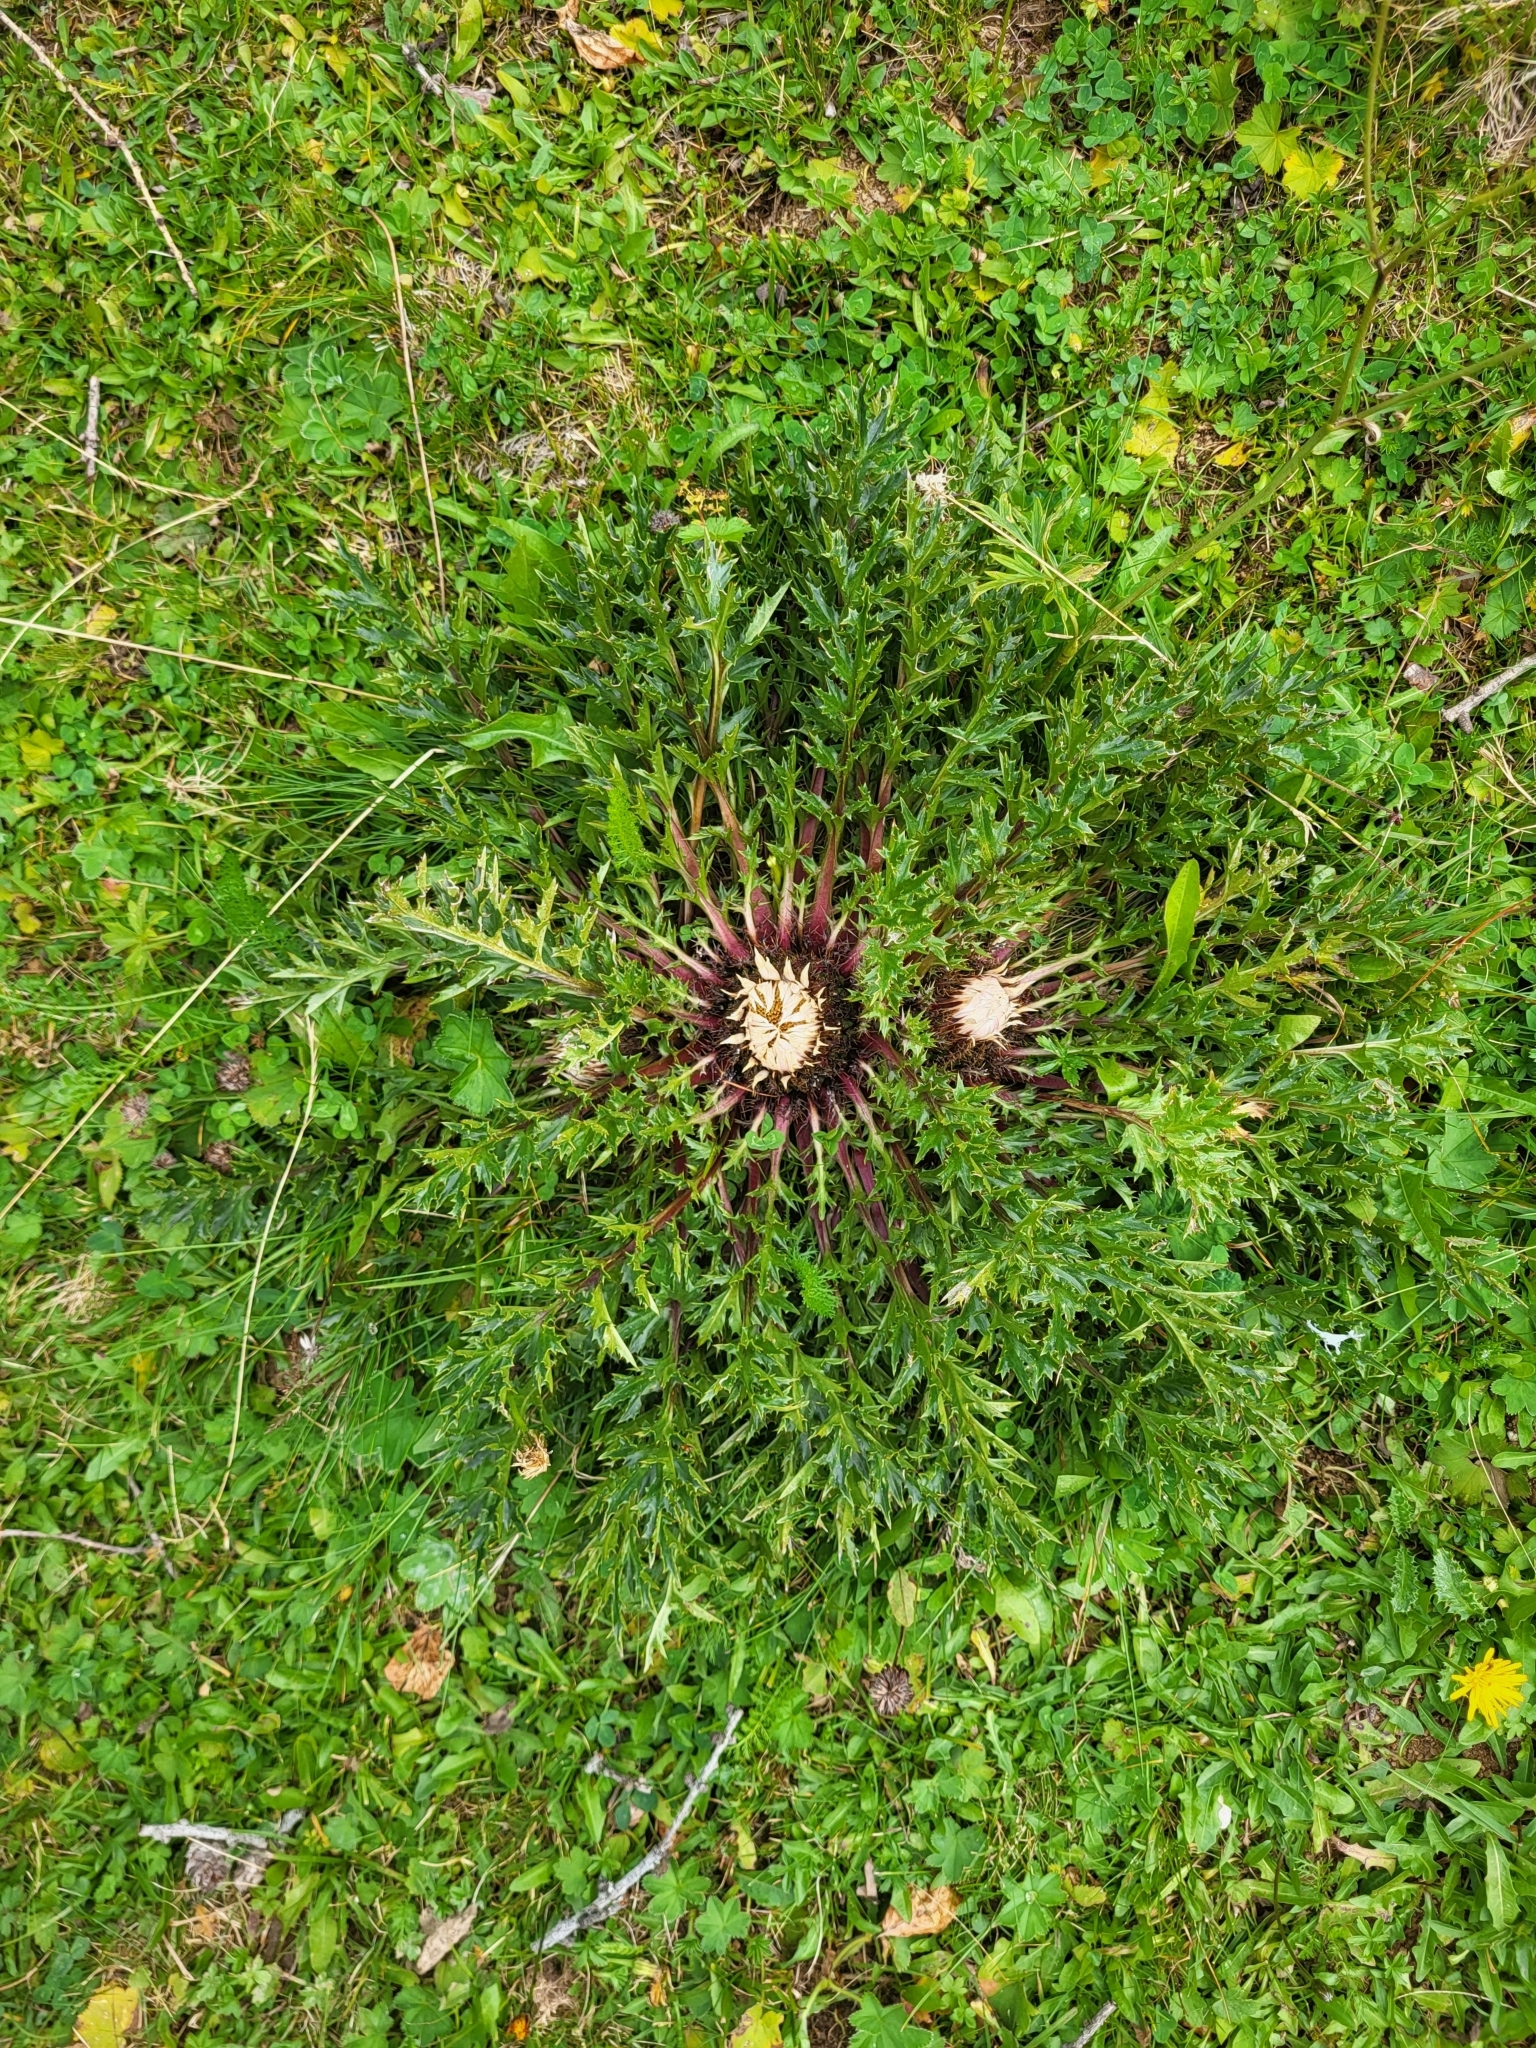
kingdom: Plantae
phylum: Tracheophyta
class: Magnoliopsida
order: Asterales
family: Asteraceae
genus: Carlina
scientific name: Carlina acaulis
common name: Stemless carline thistle
